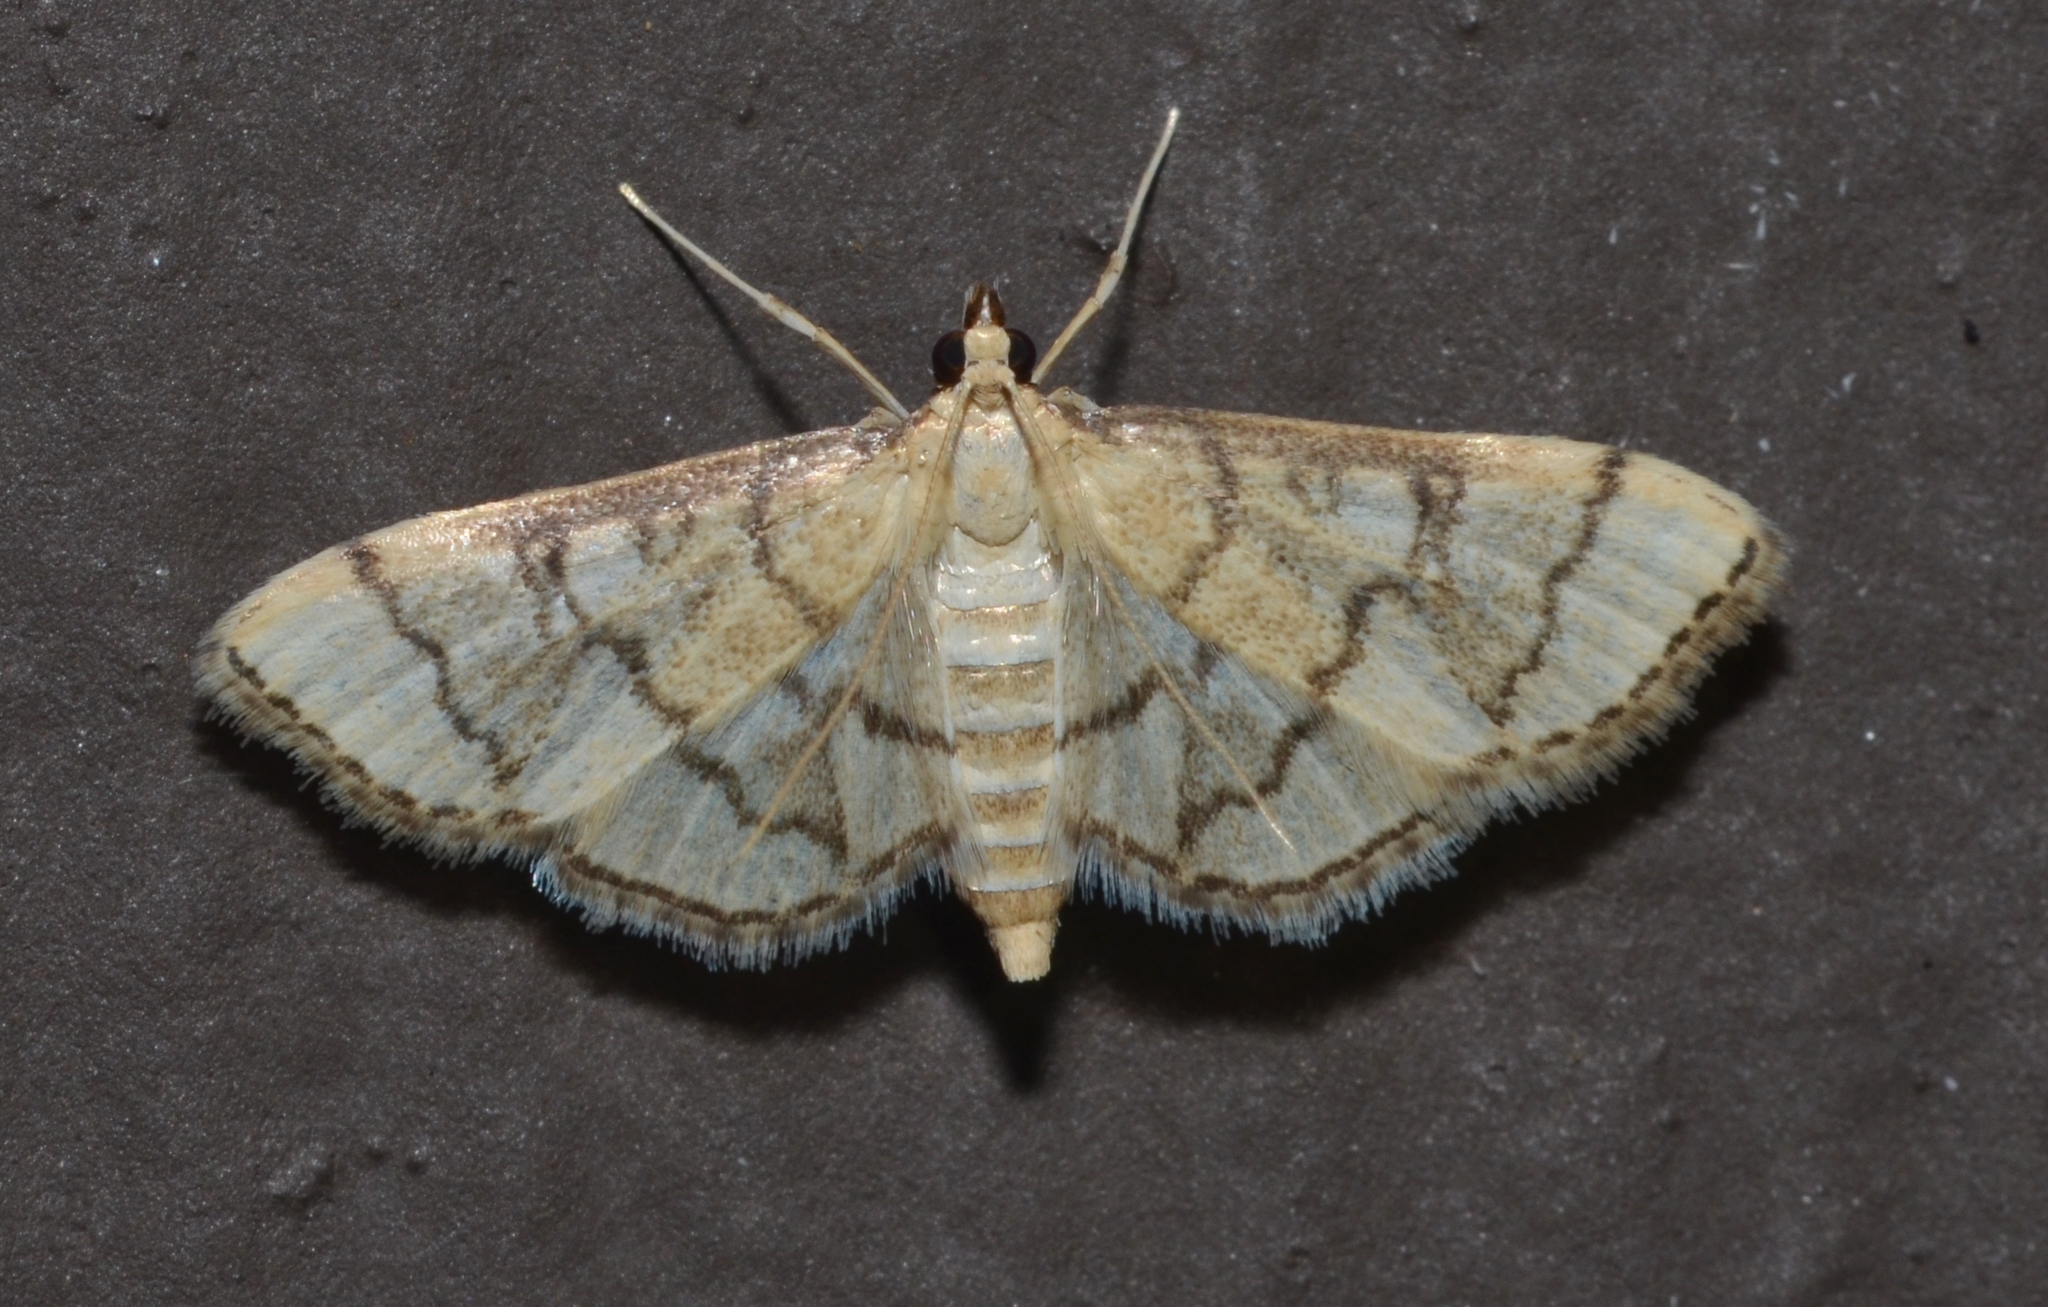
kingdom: Animalia
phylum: Arthropoda
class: Insecta
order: Lepidoptera
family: Crambidae
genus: Lamprosema
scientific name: Lamprosema Blepharomastix ranalis
